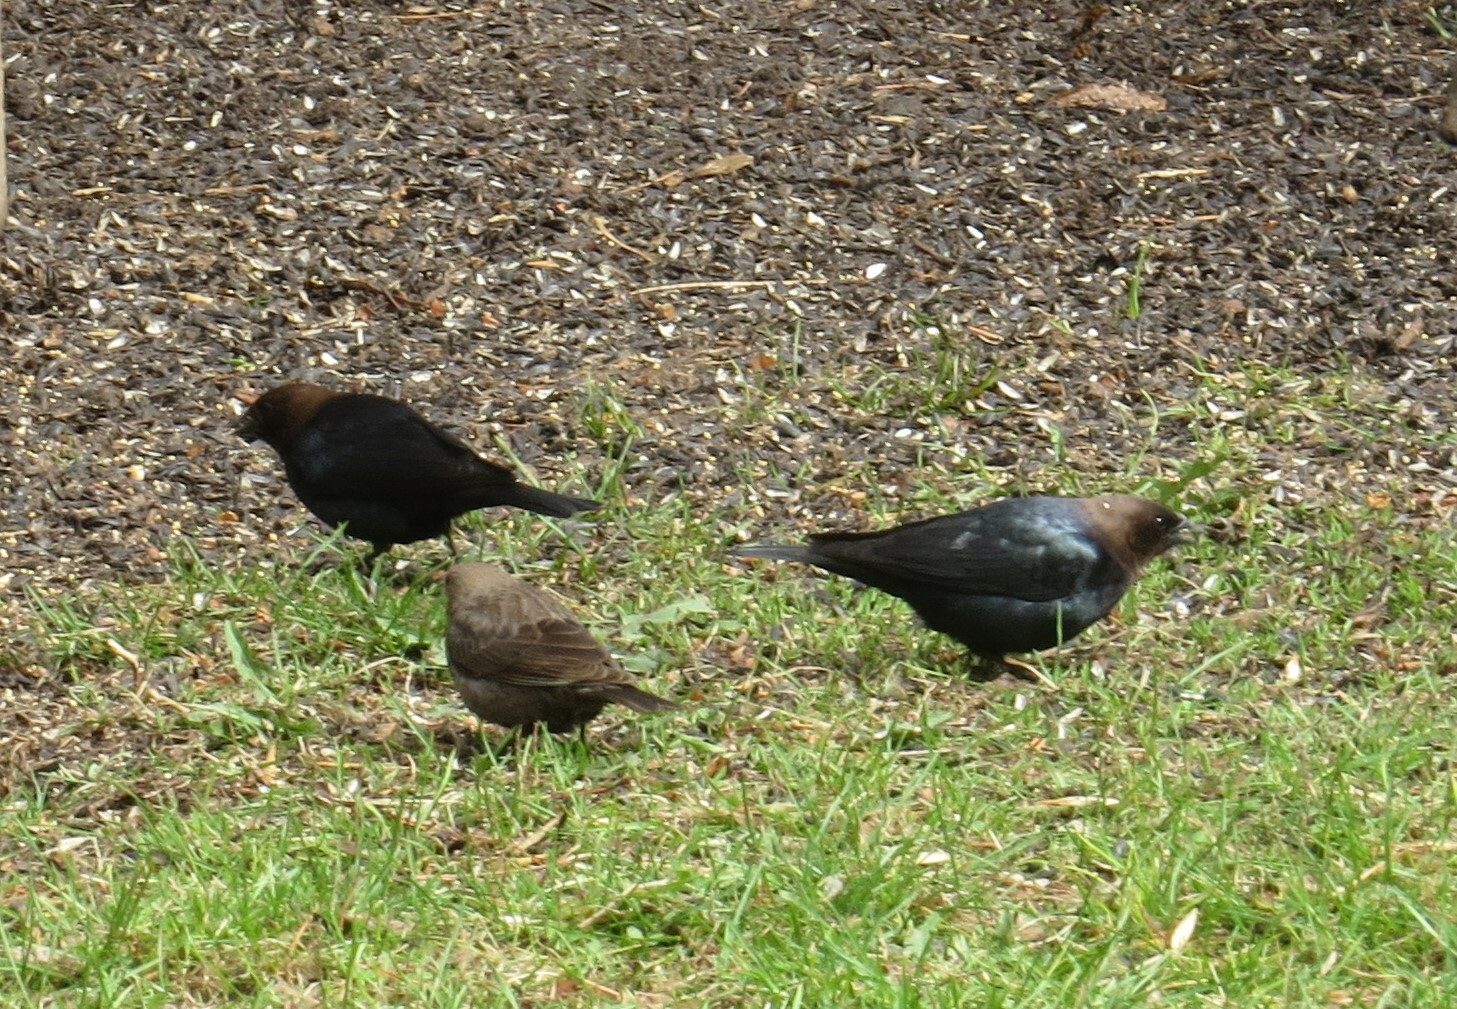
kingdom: Animalia
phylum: Chordata
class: Aves
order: Passeriformes
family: Icteridae
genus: Molothrus
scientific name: Molothrus ater
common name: Brown-headed cowbird
